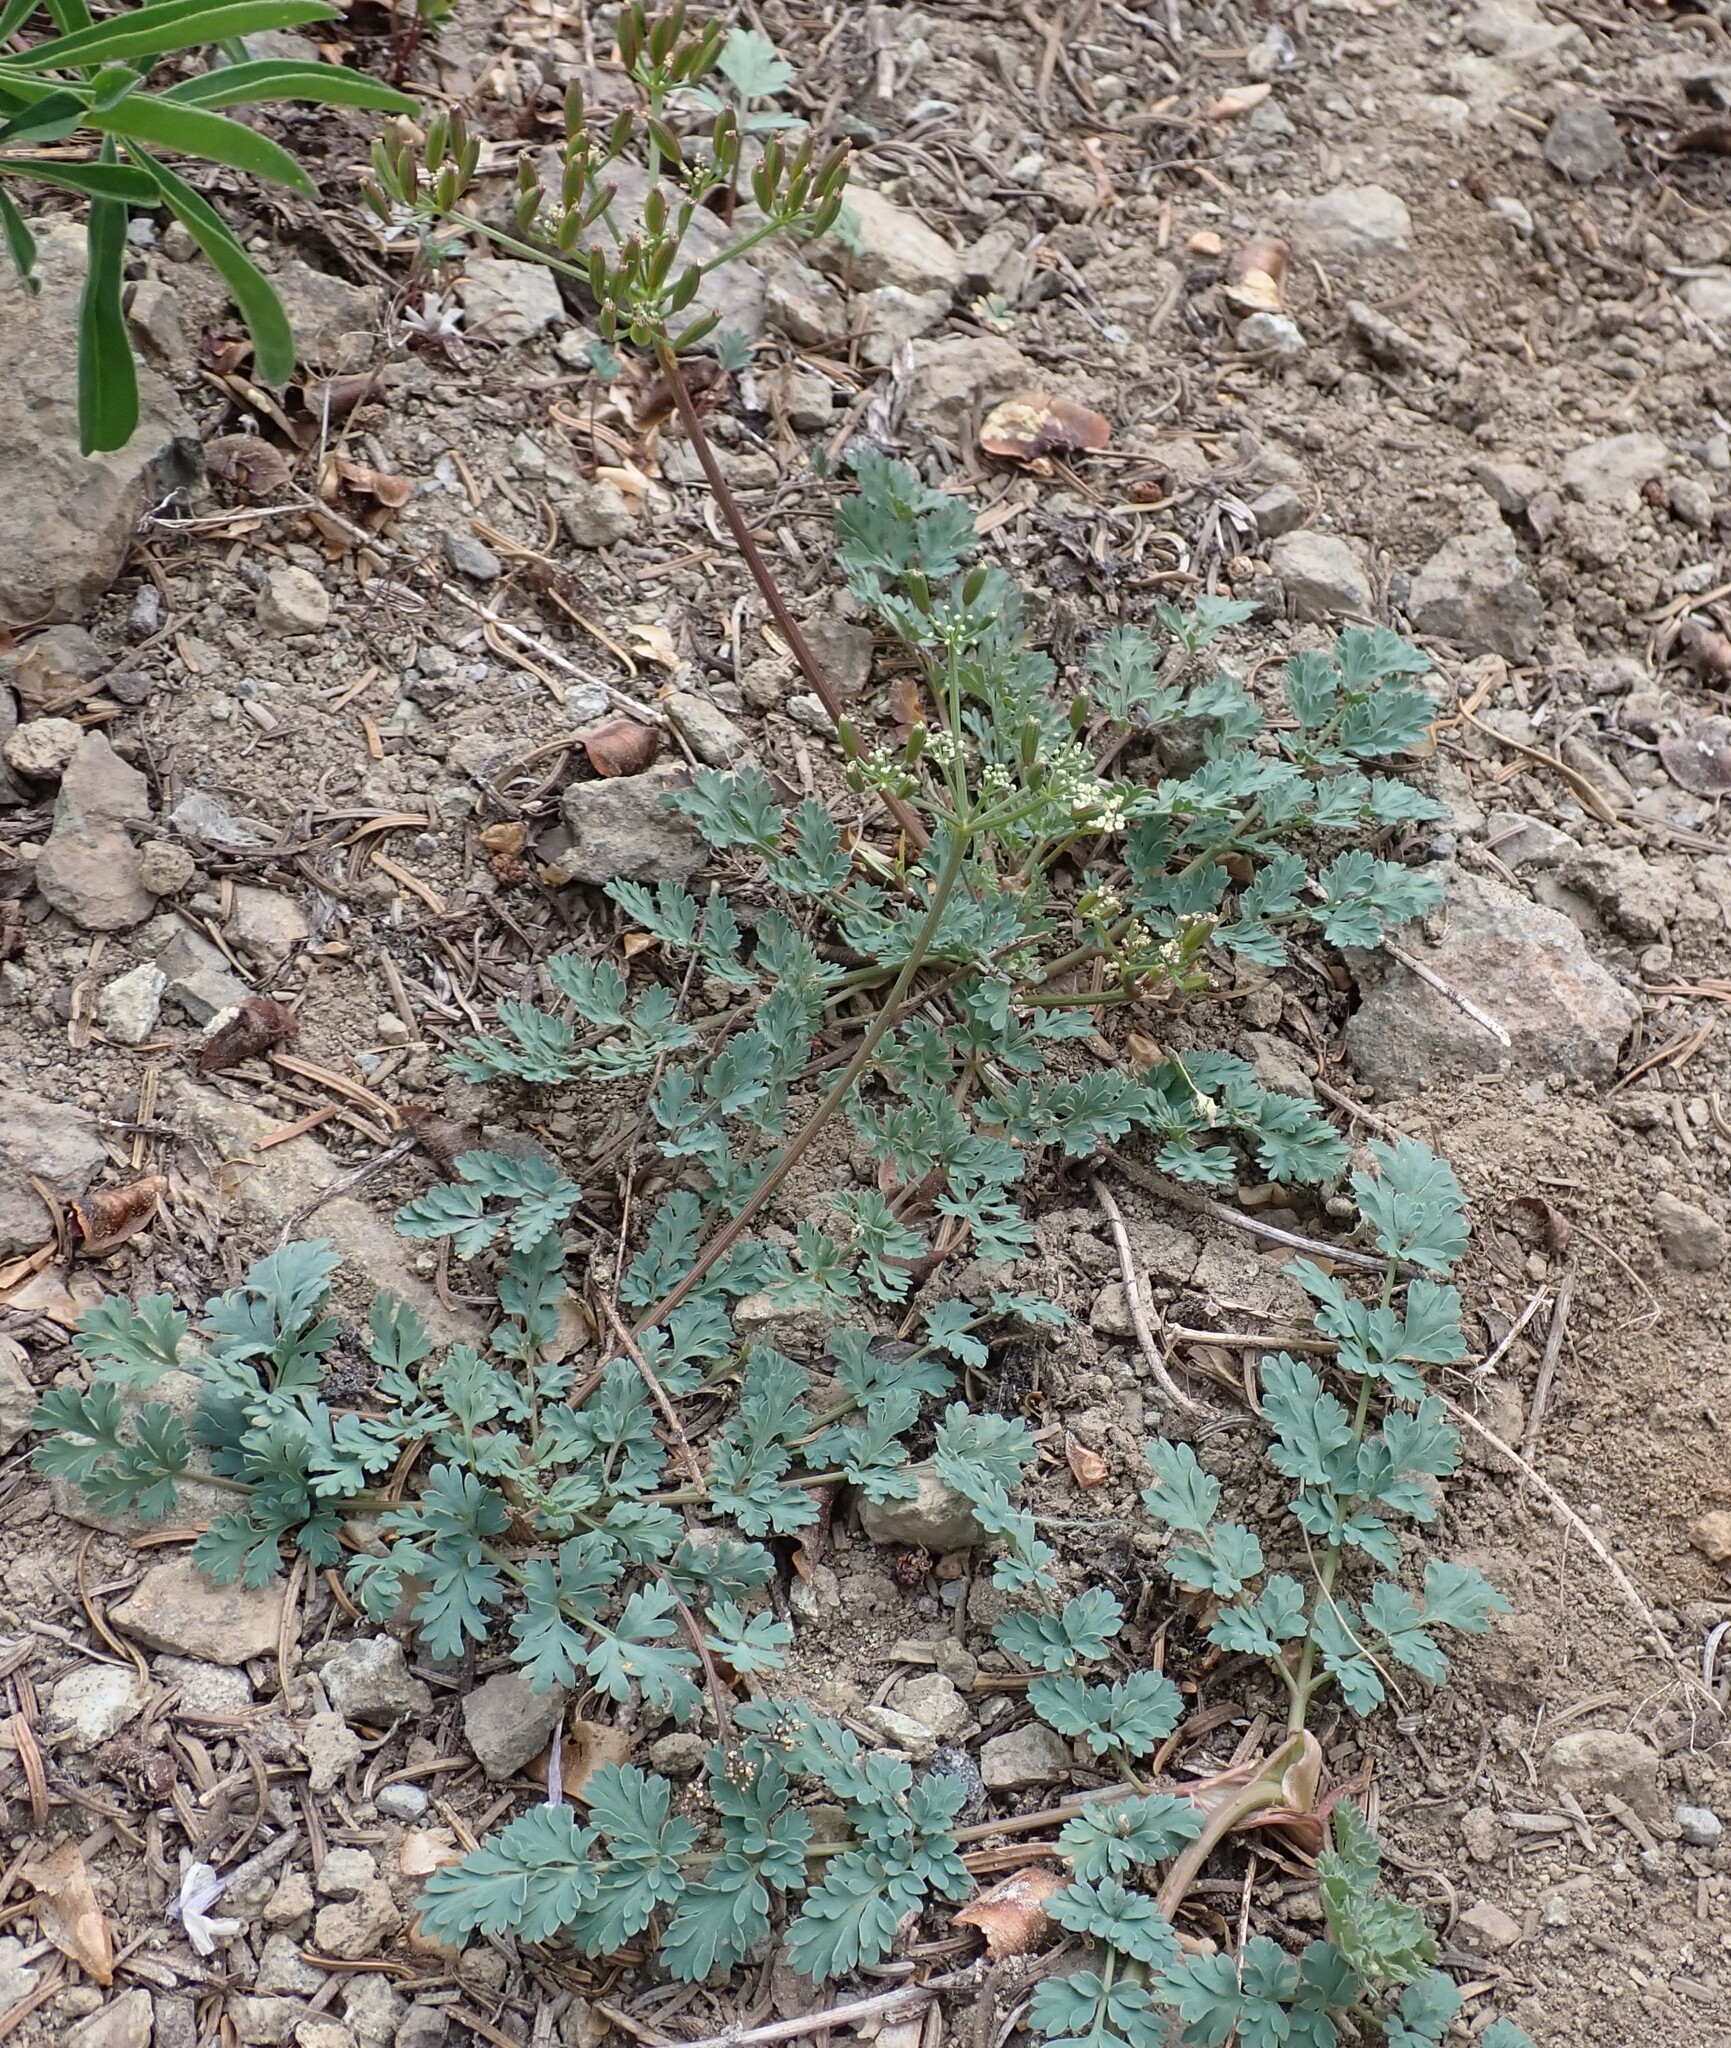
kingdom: Plantae
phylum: Tracheophyta
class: Magnoliopsida
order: Apiales
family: Apiaceae
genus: Lomatium
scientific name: Lomatium martindalei
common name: Cascade desert-parsley
